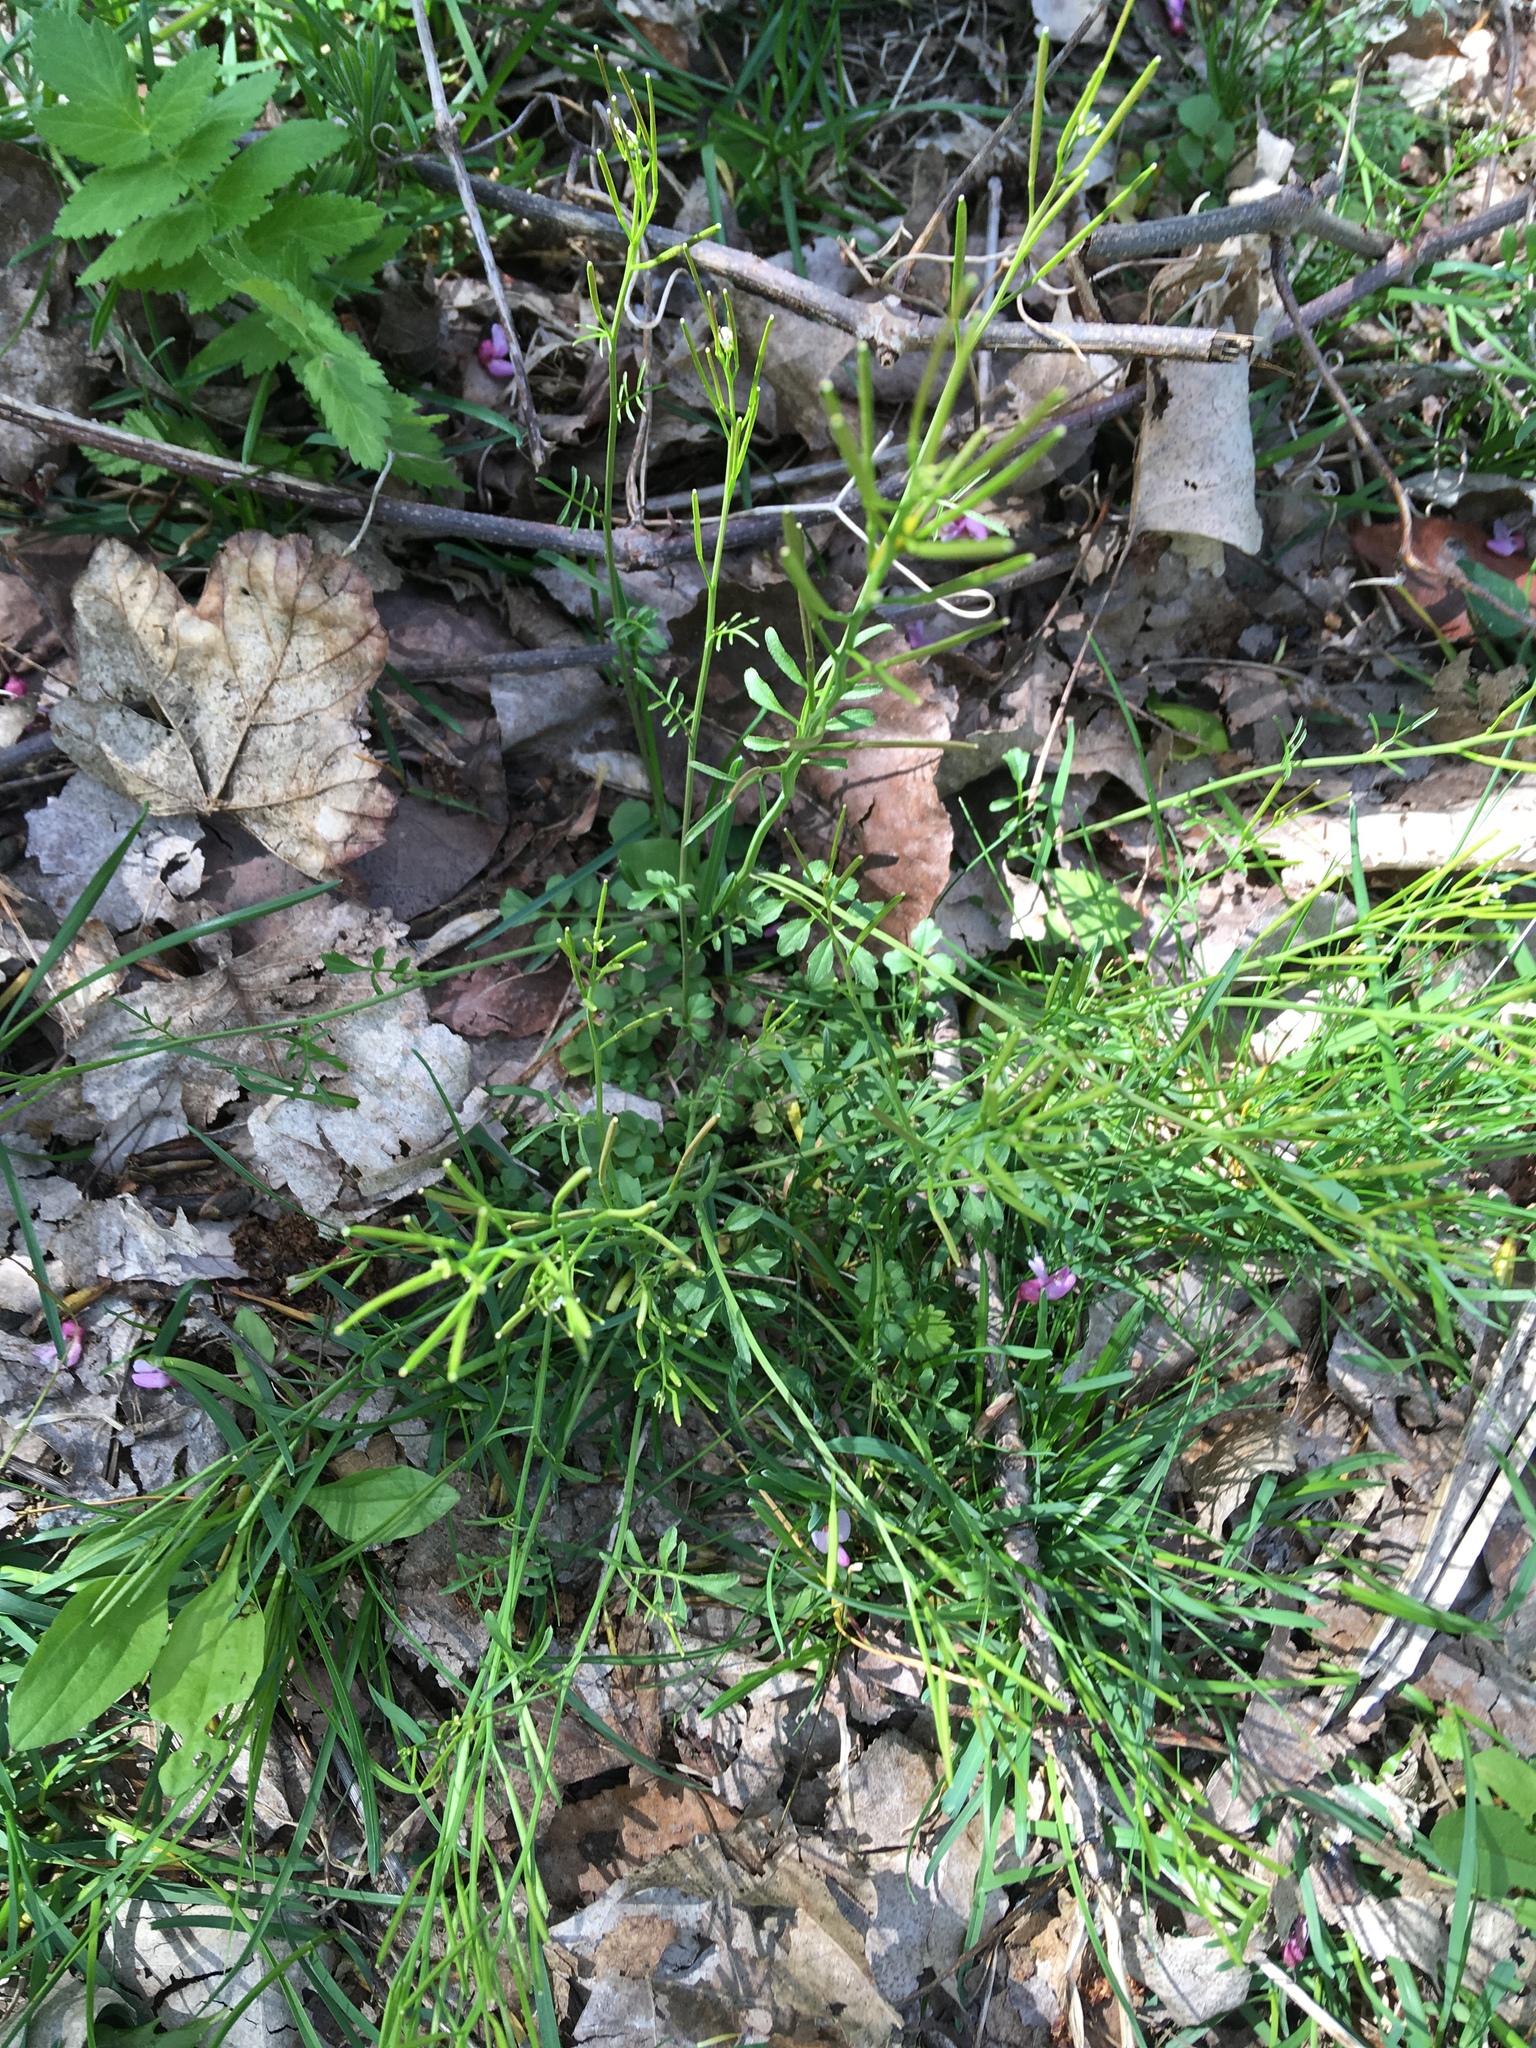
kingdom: Plantae
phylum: Tracheophyta
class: Magnoliopsida
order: Brassicales
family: Brassicaceae
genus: Cardamine
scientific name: Cardamine hirsuta
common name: Hairy bittercress
